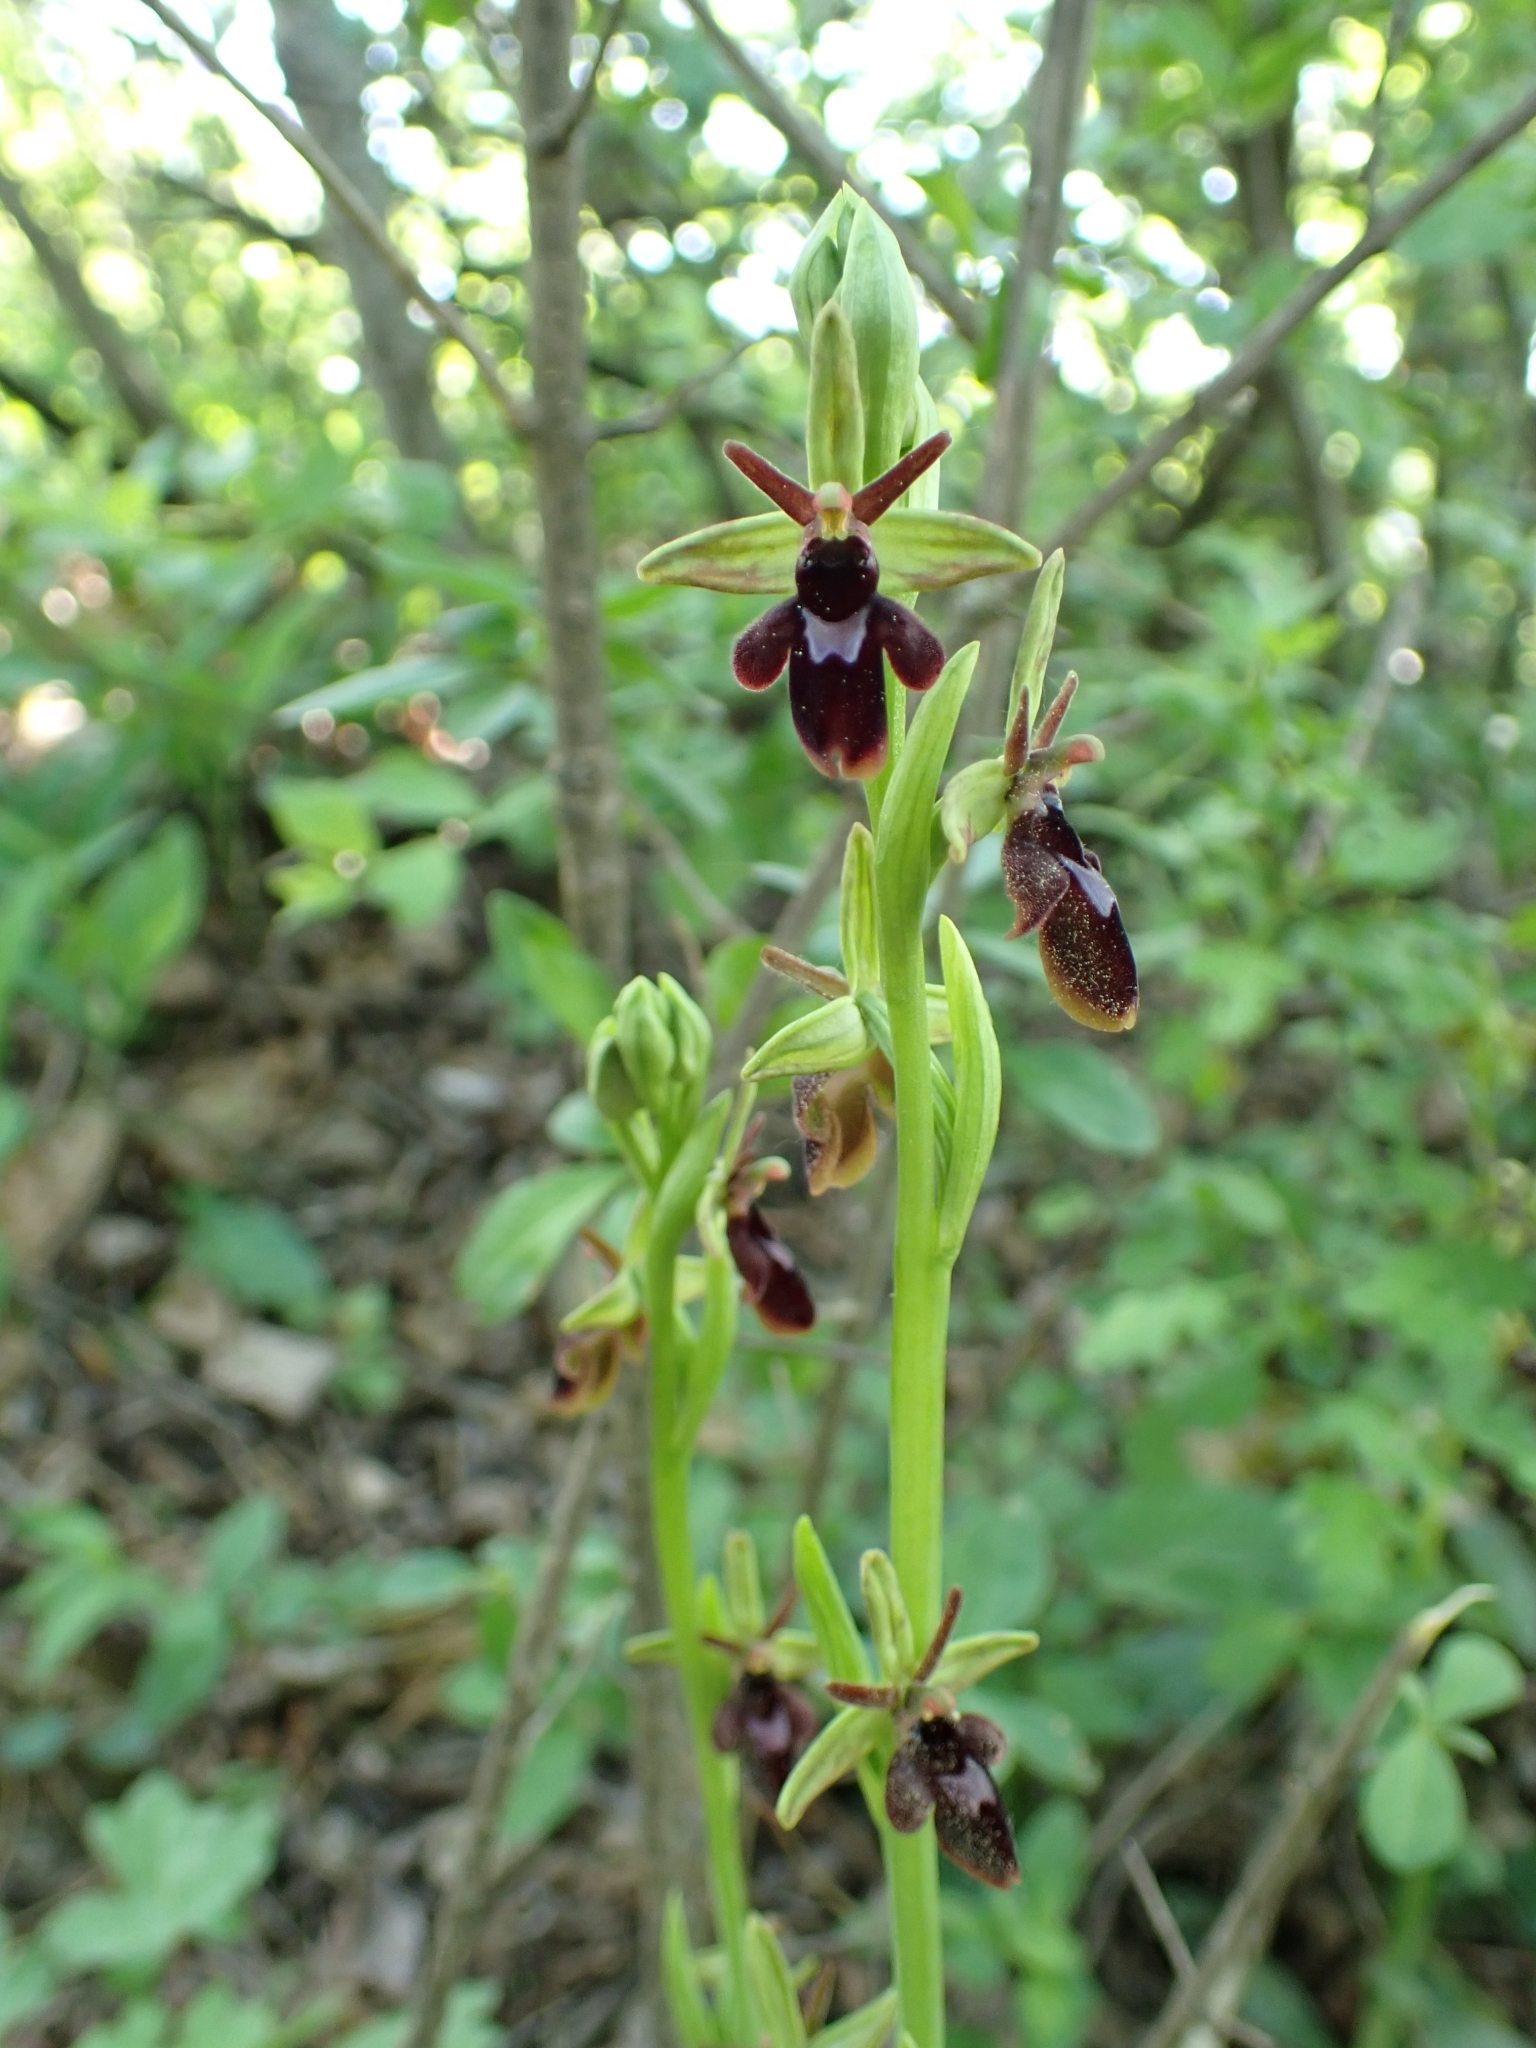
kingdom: Plantae
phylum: Tracheophyta
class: Liliopsida
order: Asparagales
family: Orchidaceae
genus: Ophrys
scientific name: Ophrys hybrida
